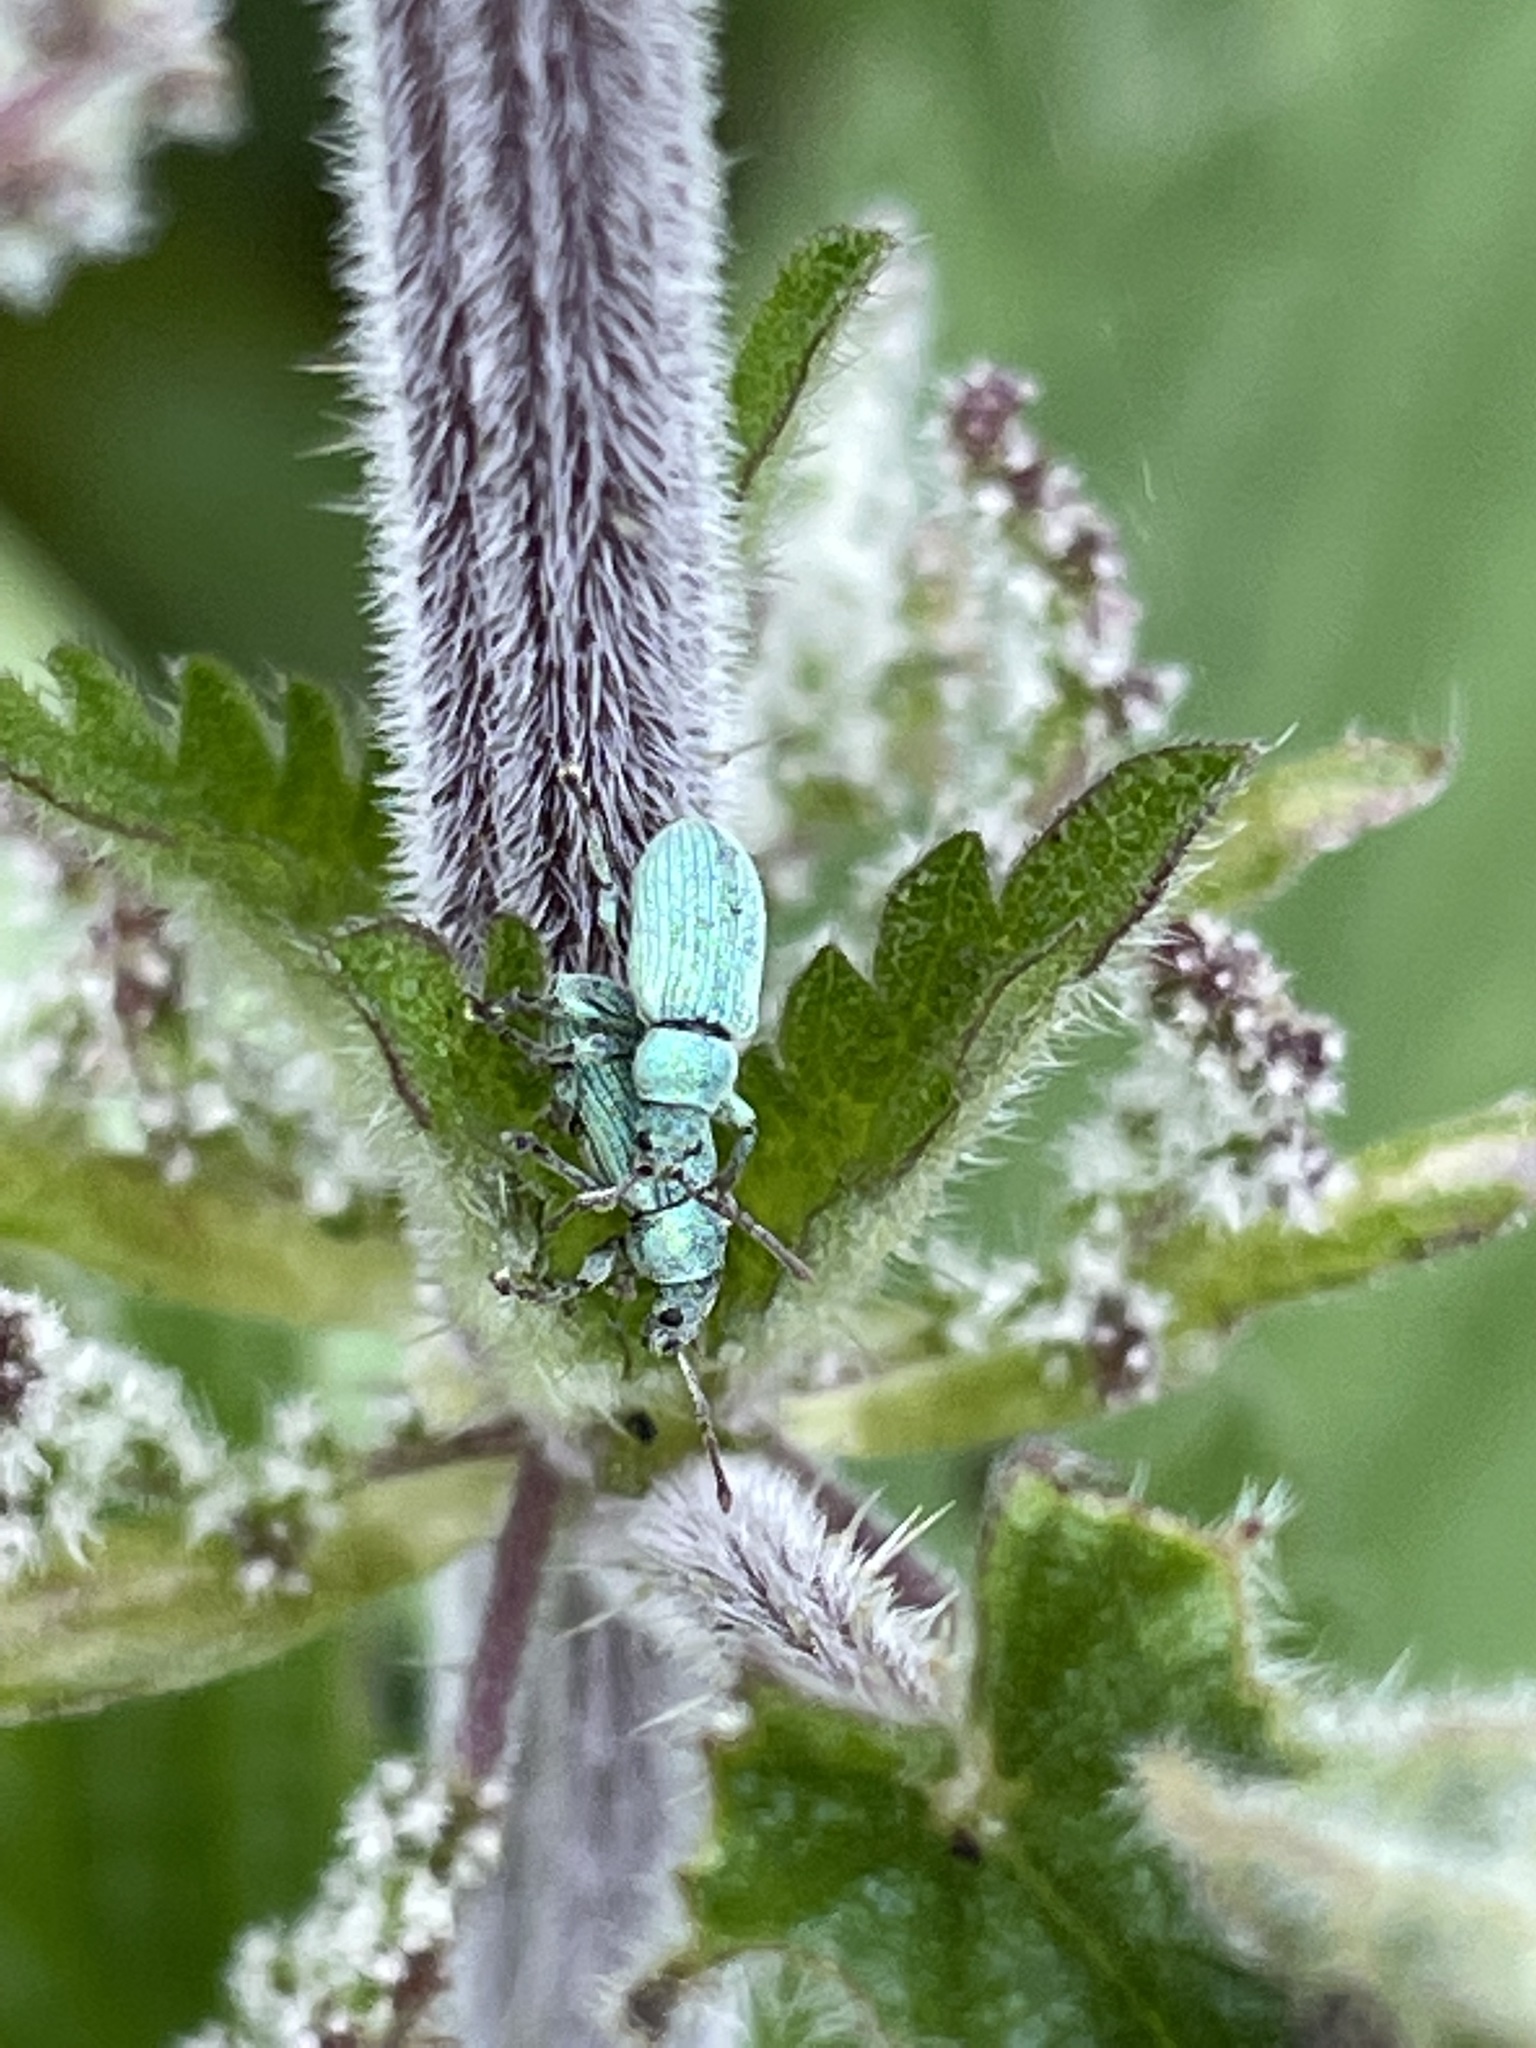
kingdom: Animalia
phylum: Arthropoda
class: Insecta
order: Coleoptera
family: Curculionidae
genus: Phyllobius
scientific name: Phyllobius roboretanus
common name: Small green nettle weevil
